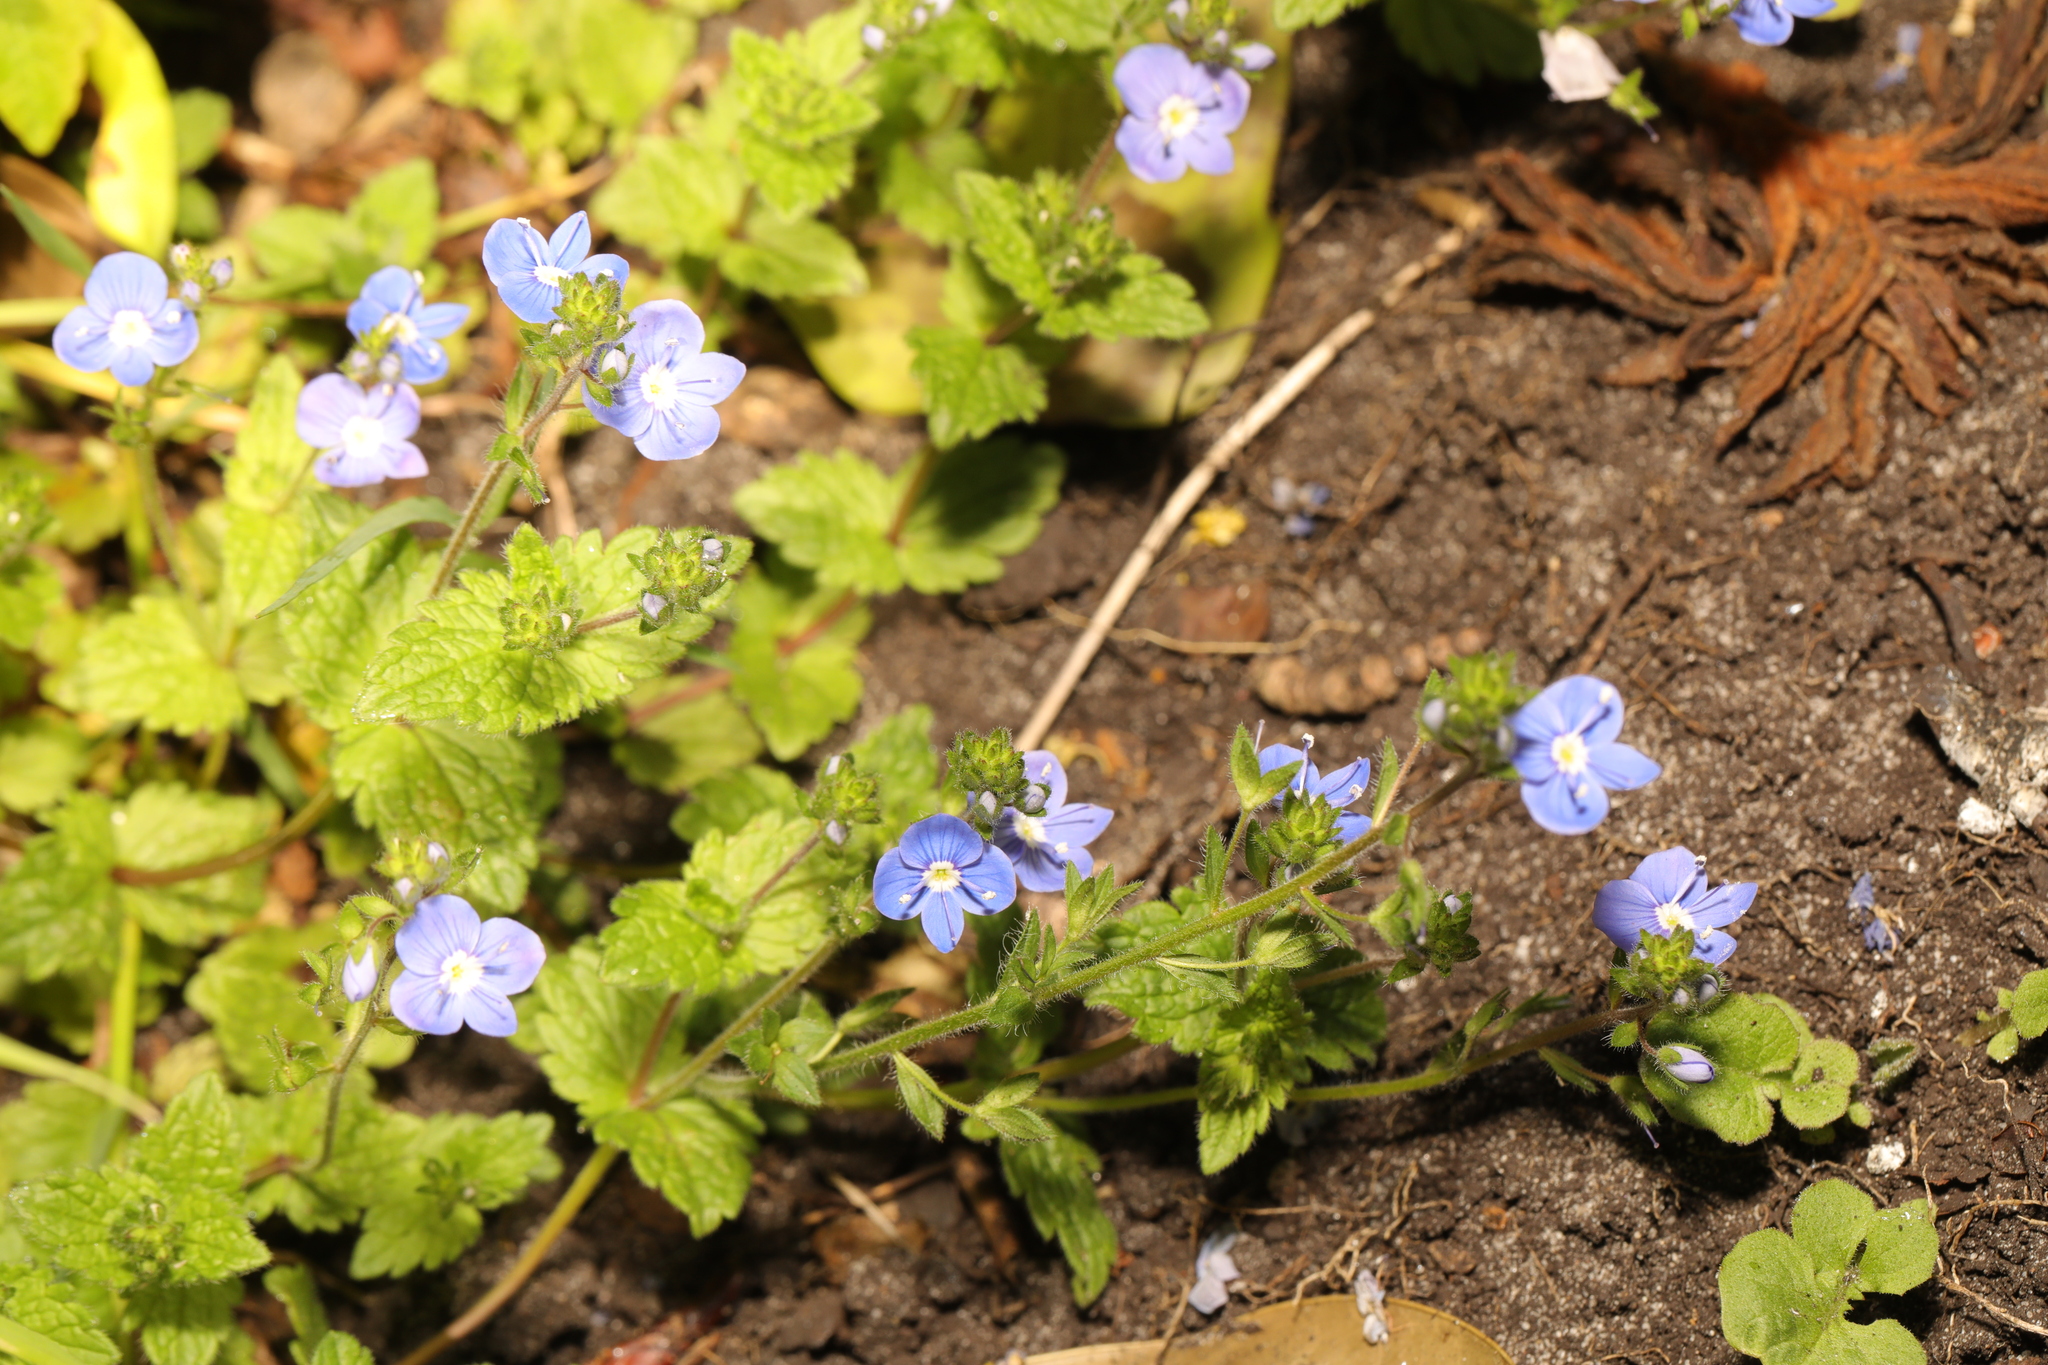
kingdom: Plantae
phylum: Tracheophyta
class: Magnoliopsida
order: Lamiales
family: Plantaginaceae
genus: Veronica
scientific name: Veronica chamaedrys
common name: Germander speedwell
